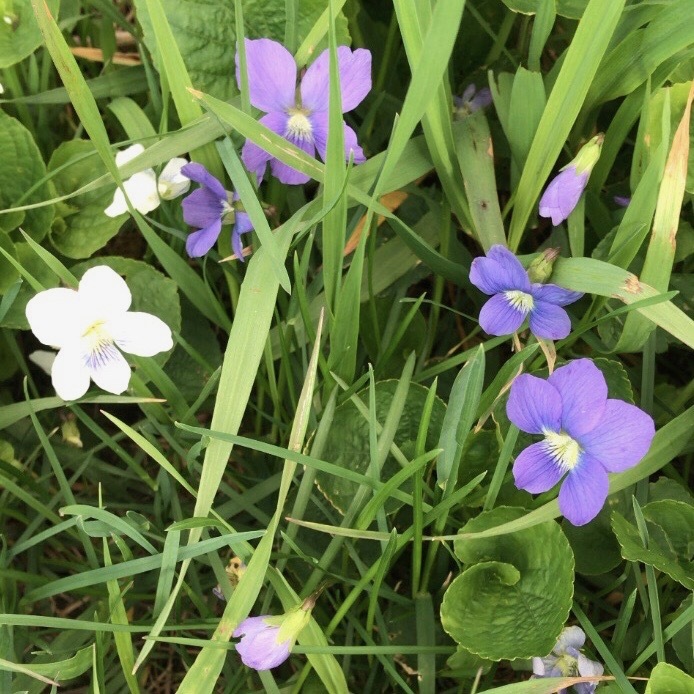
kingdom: Plantae
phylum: Tracheophyta
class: Magnoliopsida
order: Malpighiales
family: Violaceae
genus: Viola
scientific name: Viola sororia
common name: Dooryard violet
